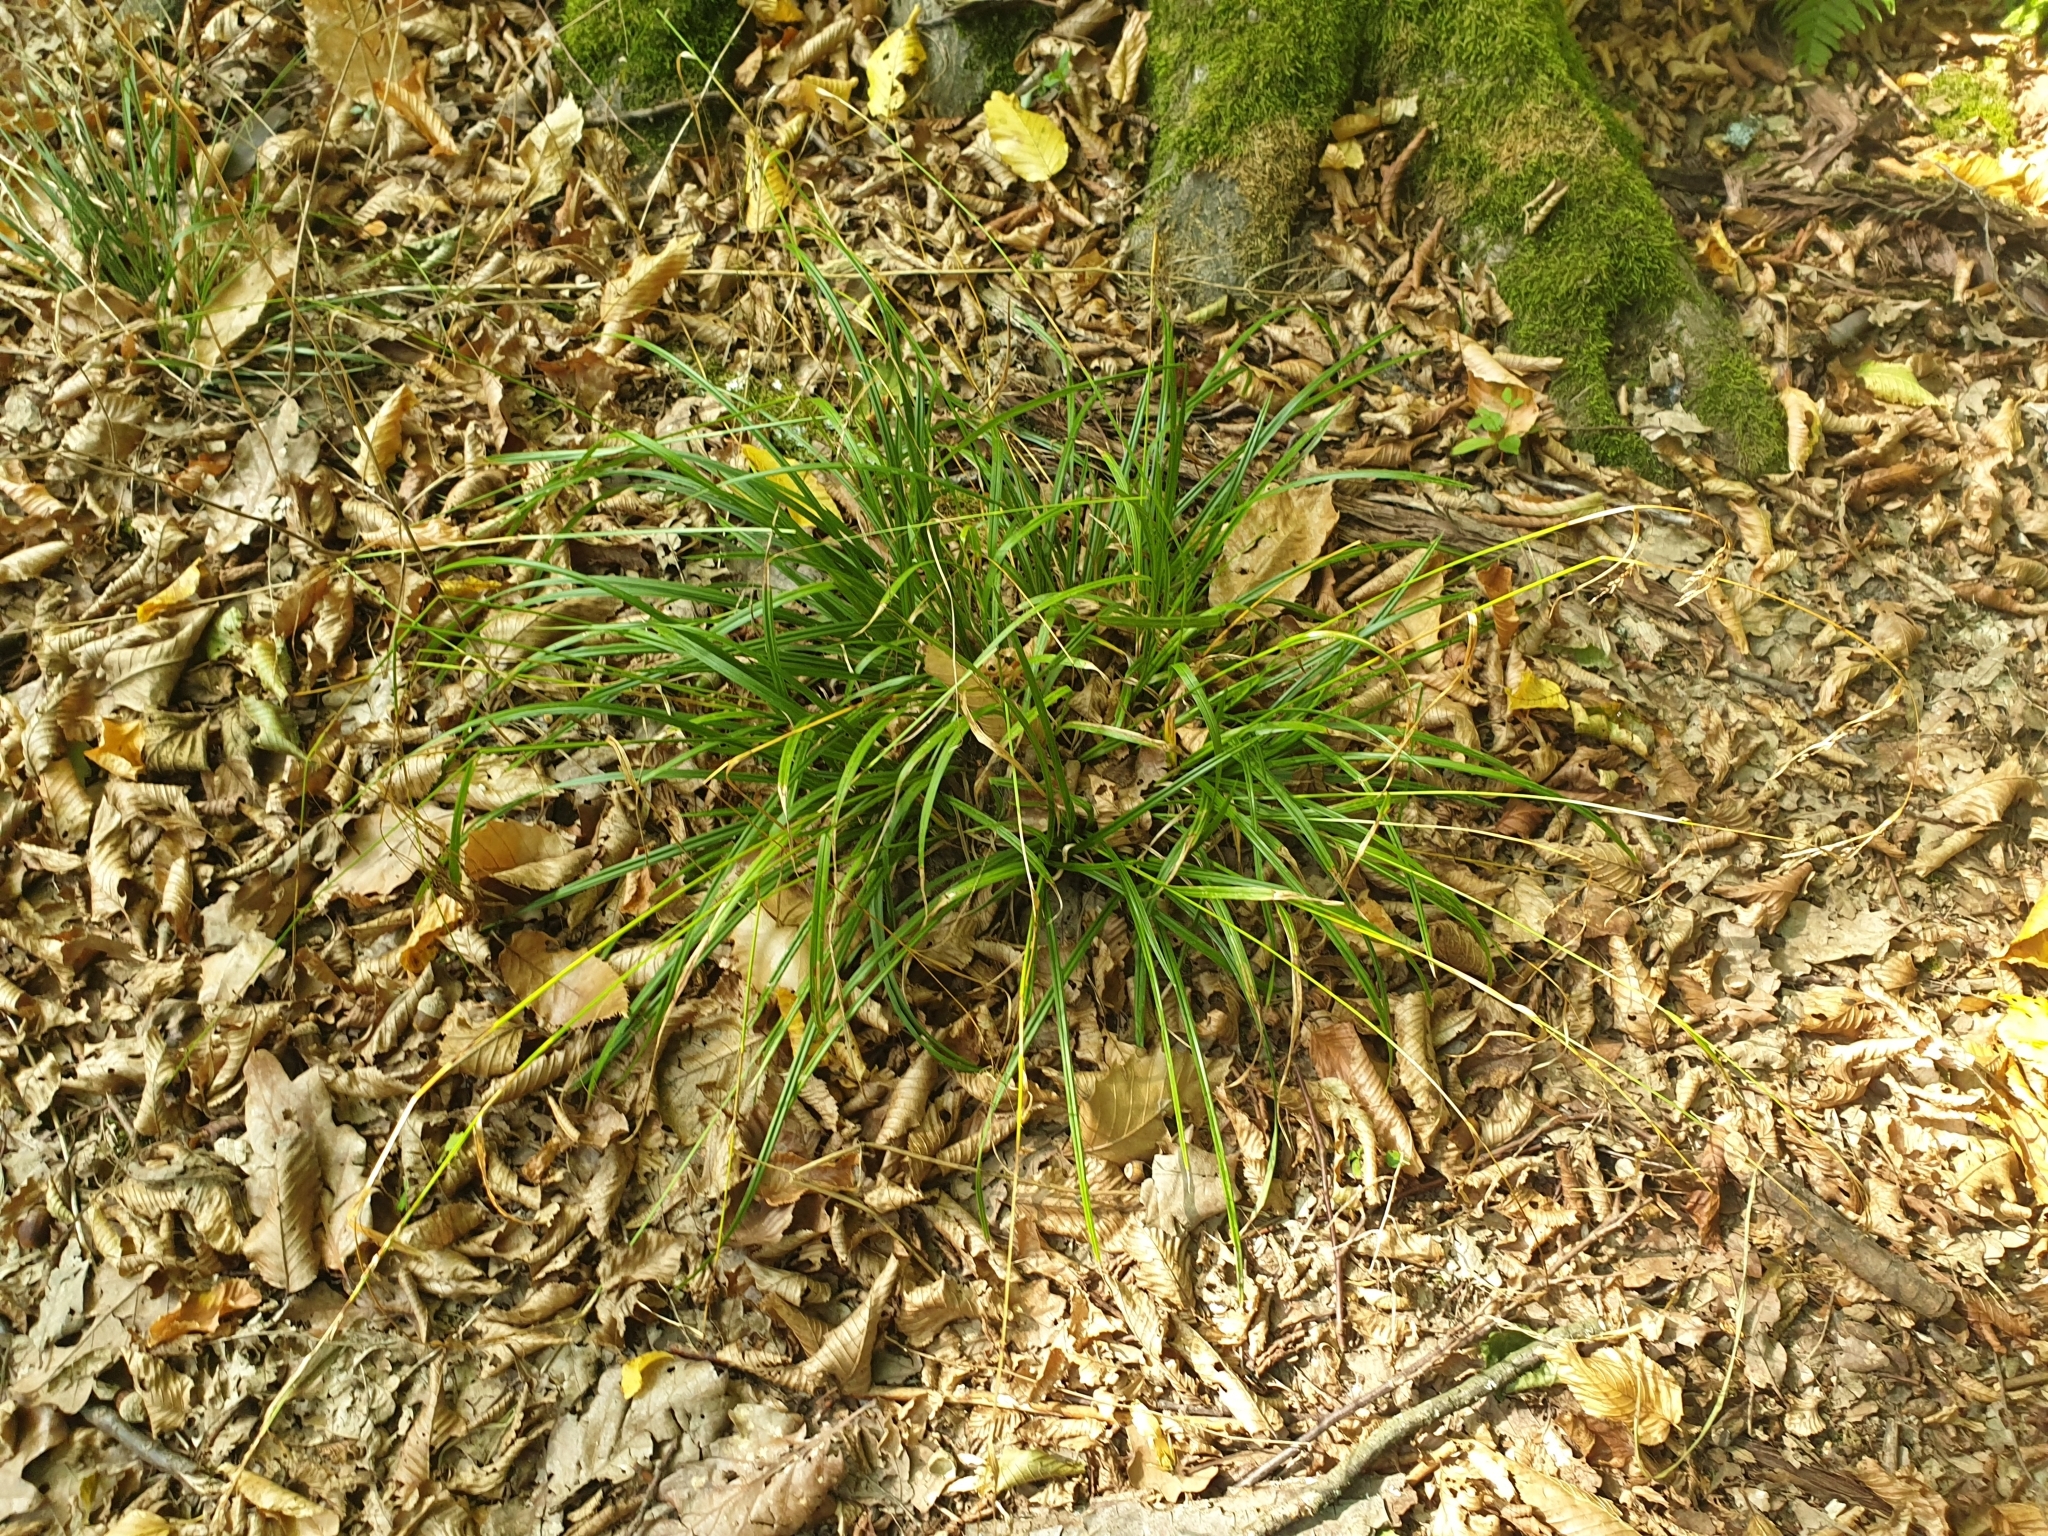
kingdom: Plantae
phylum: Tracheophyta
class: Liliopsida
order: Poales
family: Cyperaceae
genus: Carex
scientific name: Carex sylvatica
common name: Wood-sedge
